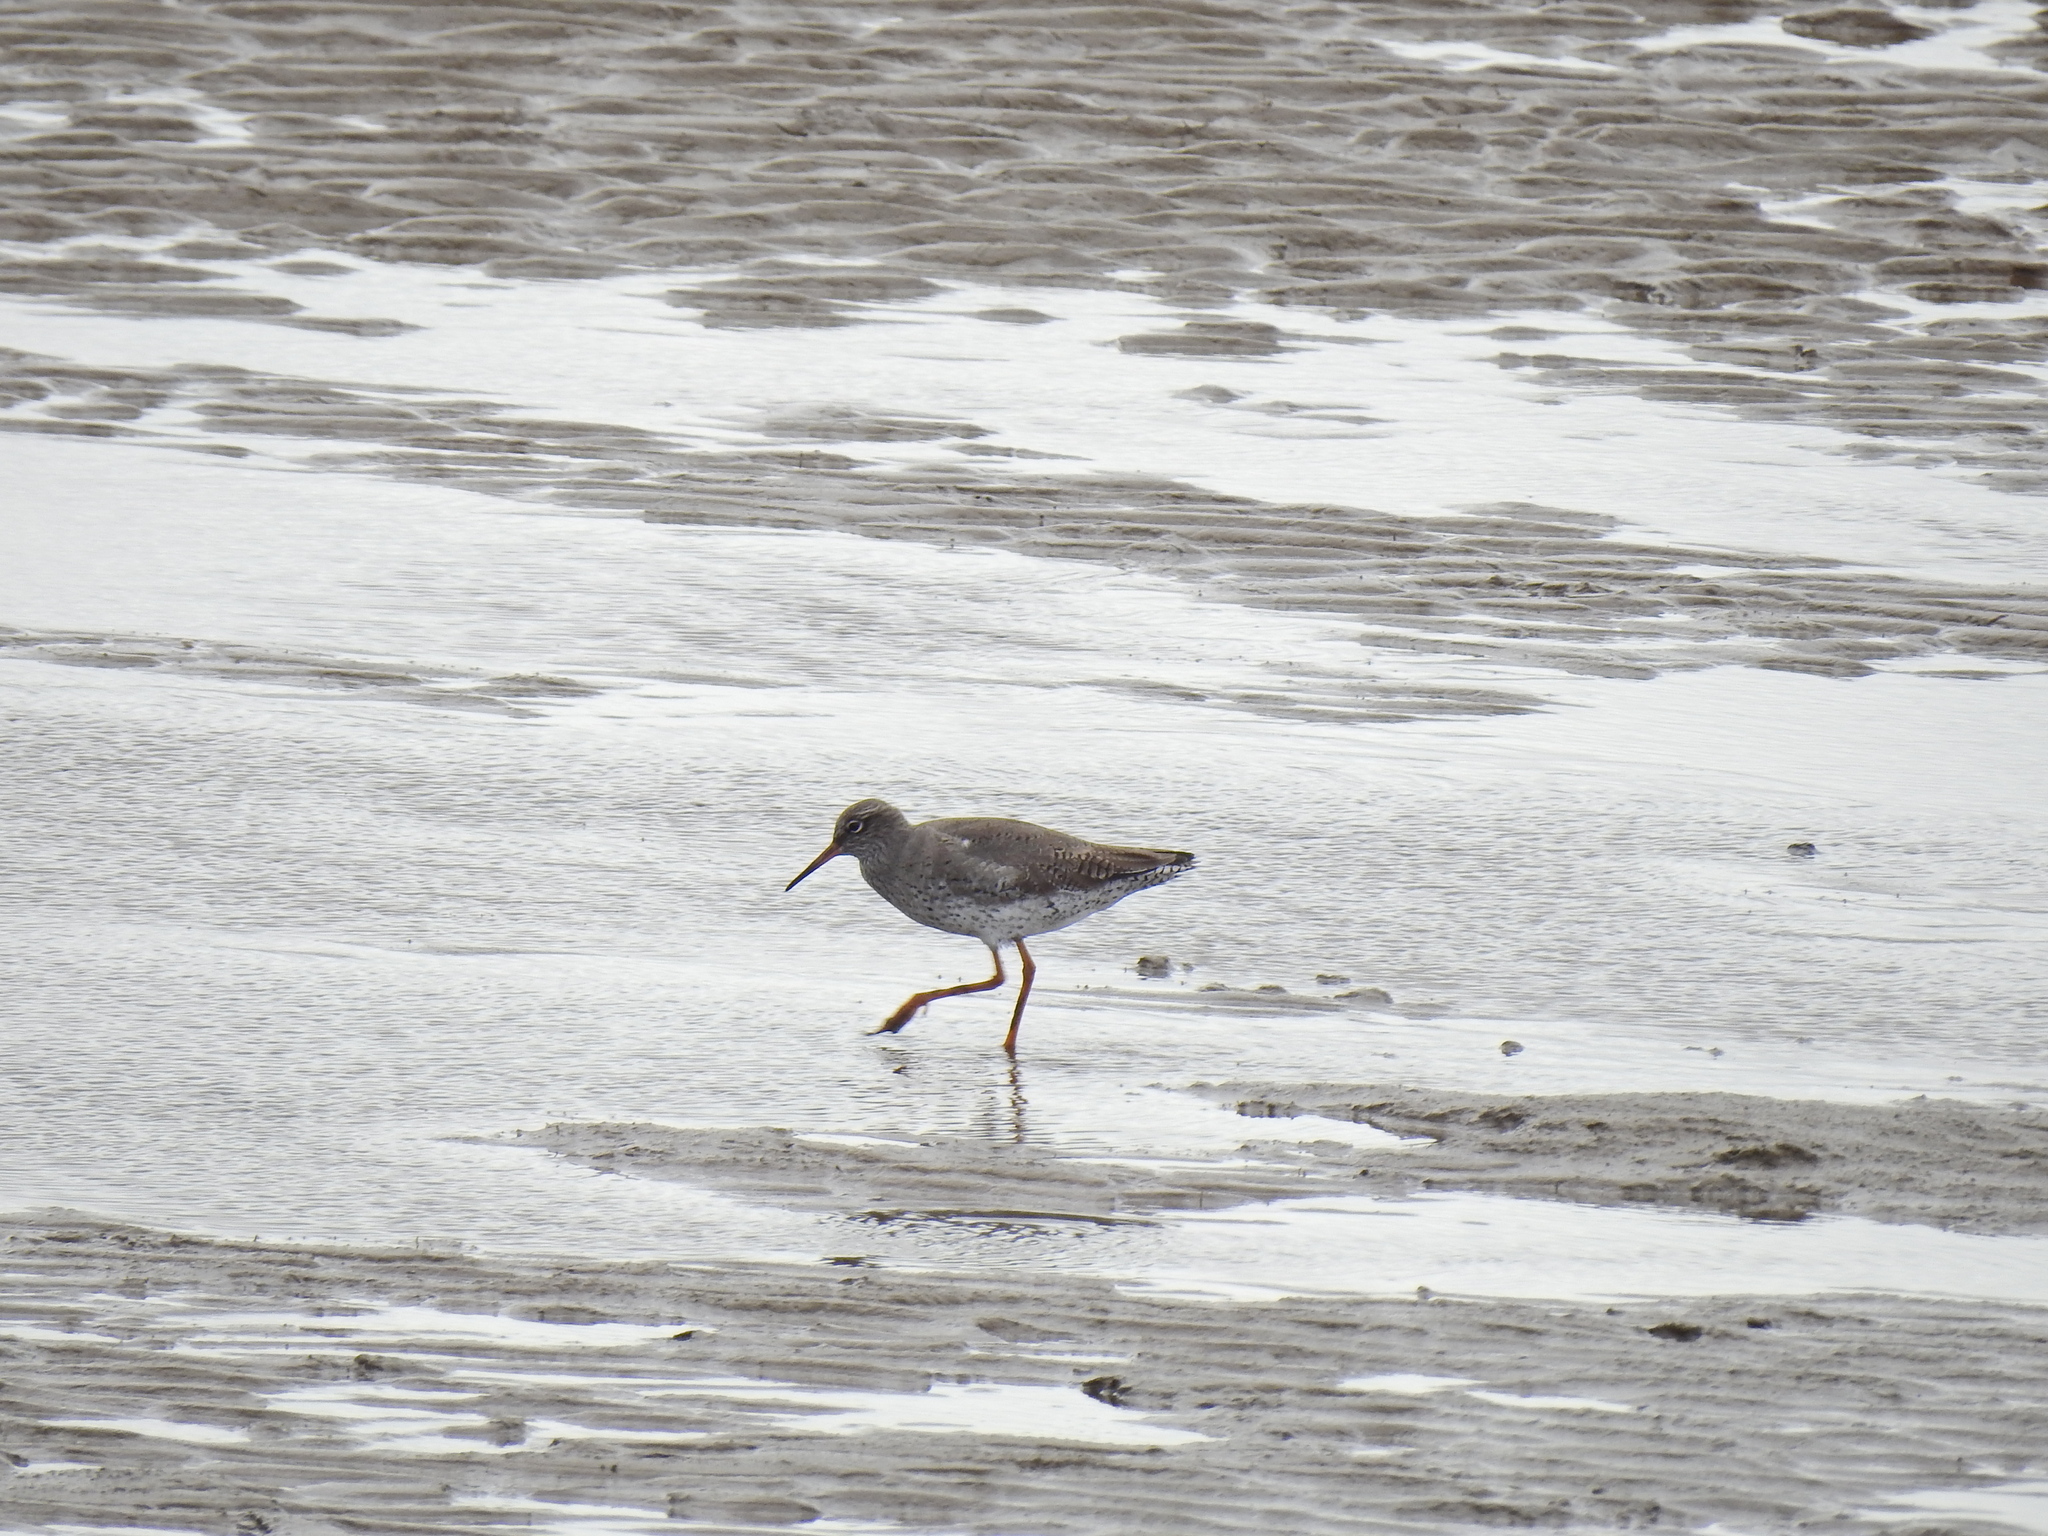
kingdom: Animalia
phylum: Chordata
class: Aves
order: Charadriiformes
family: Scolopacidae
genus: Tringa
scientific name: Tringa totanus
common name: Common redshank
